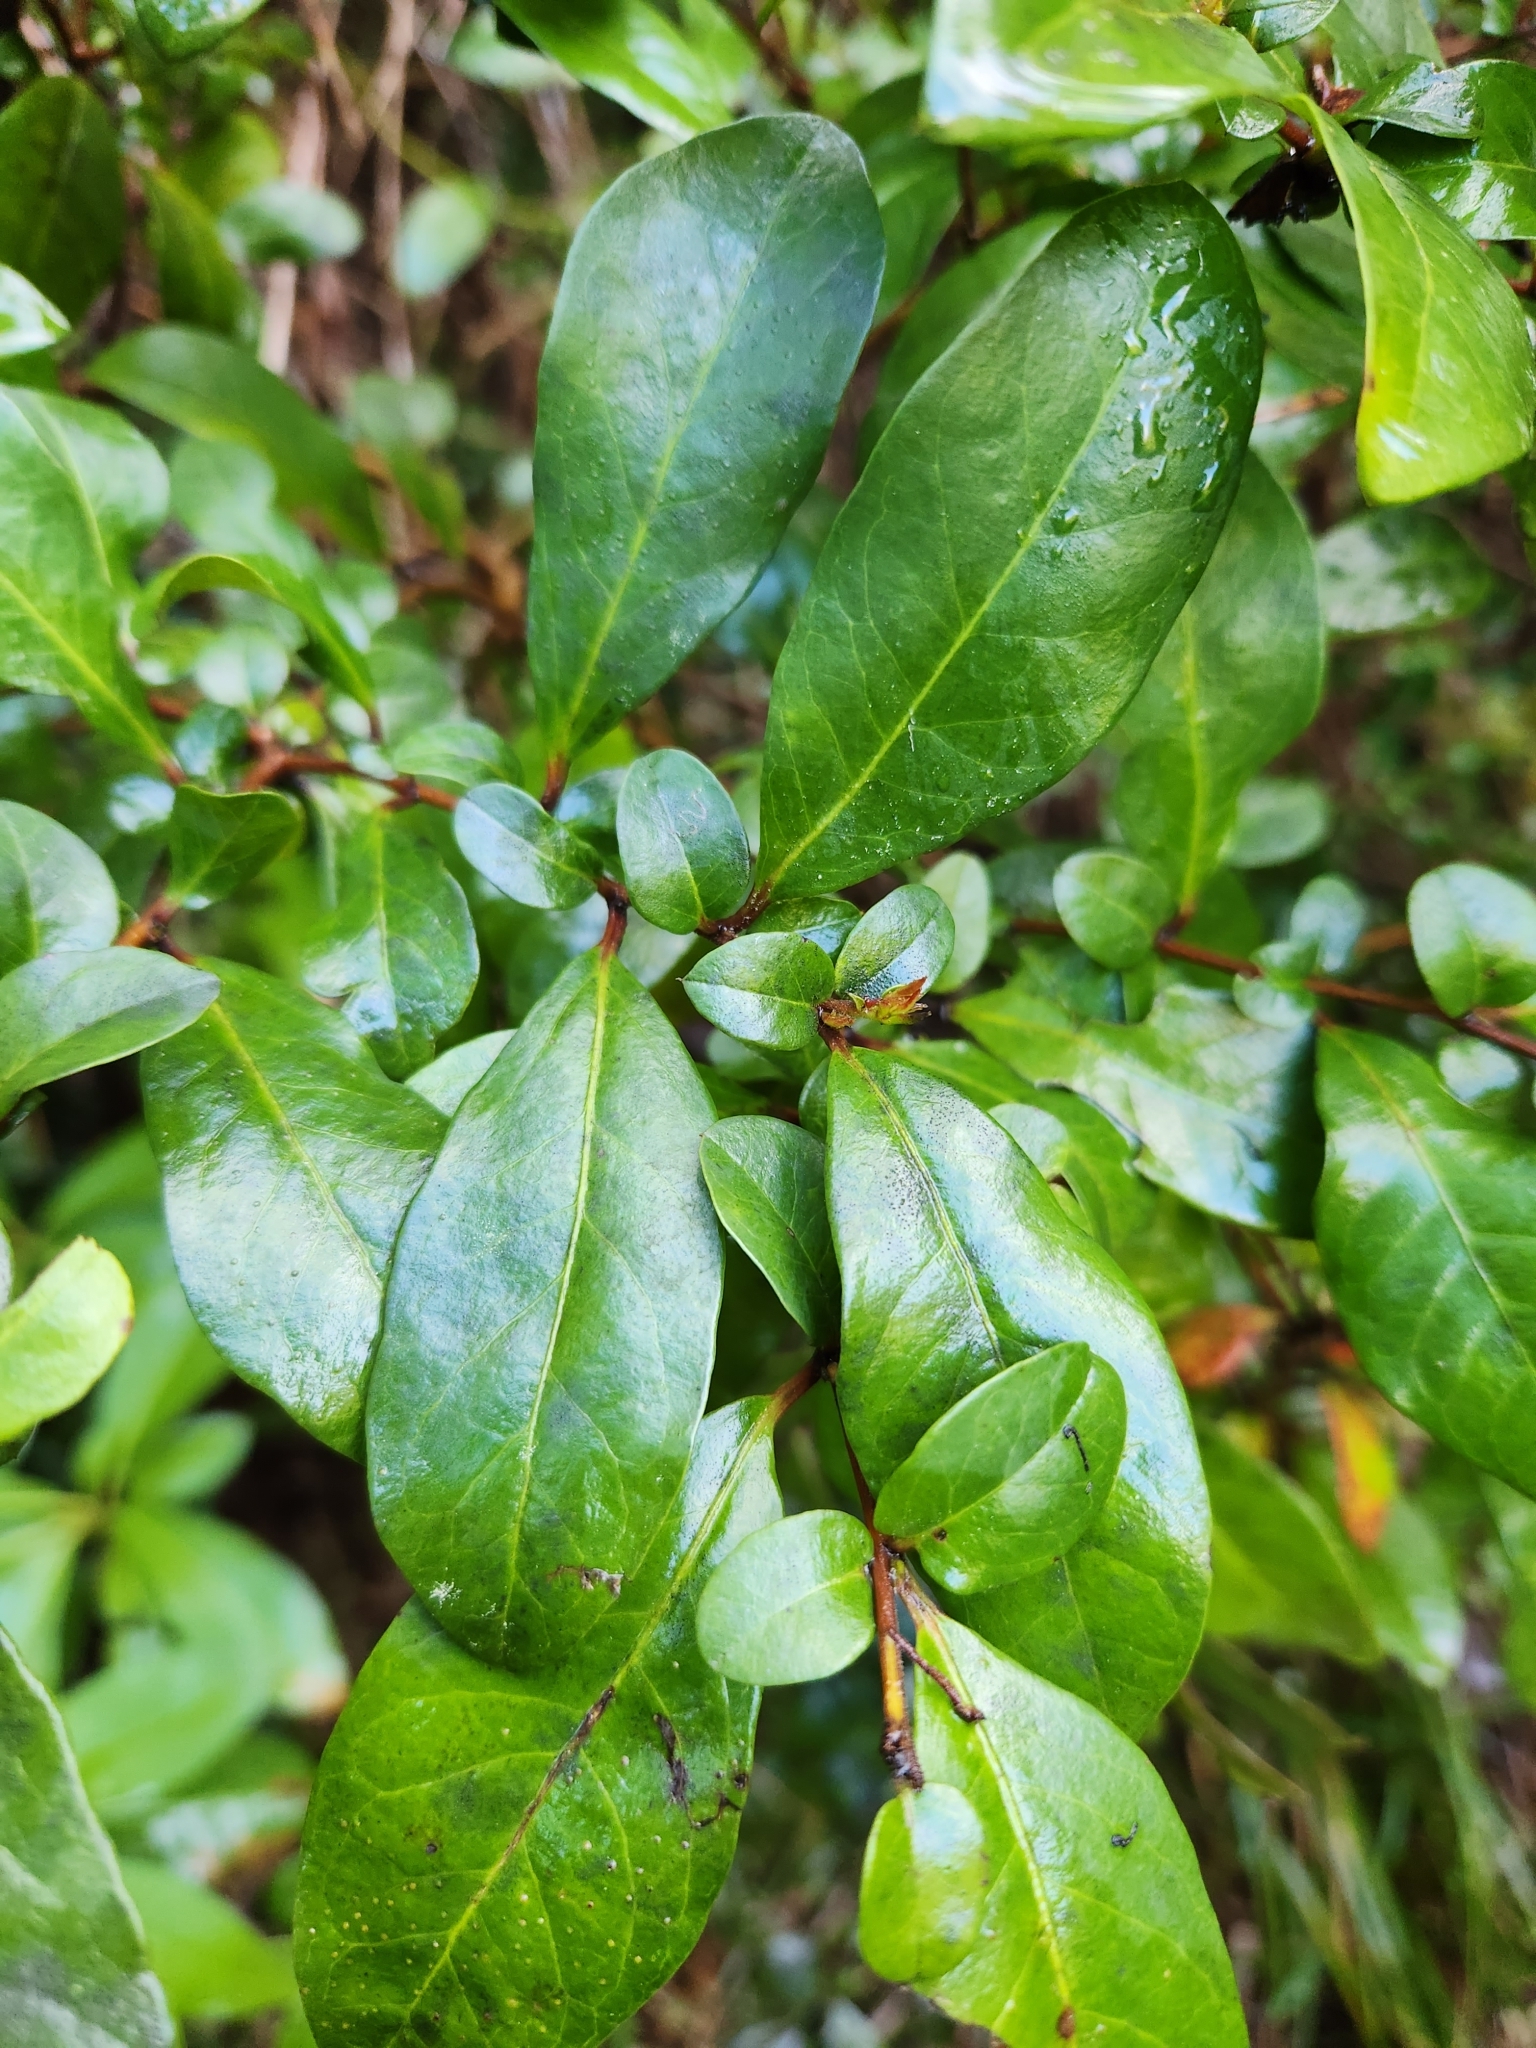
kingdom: Plantae
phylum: Tracheophyta
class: Magnoliopsida
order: Malpighiales
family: Salicaceae
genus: Azara
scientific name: Azara integrifolia
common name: Goldspire
